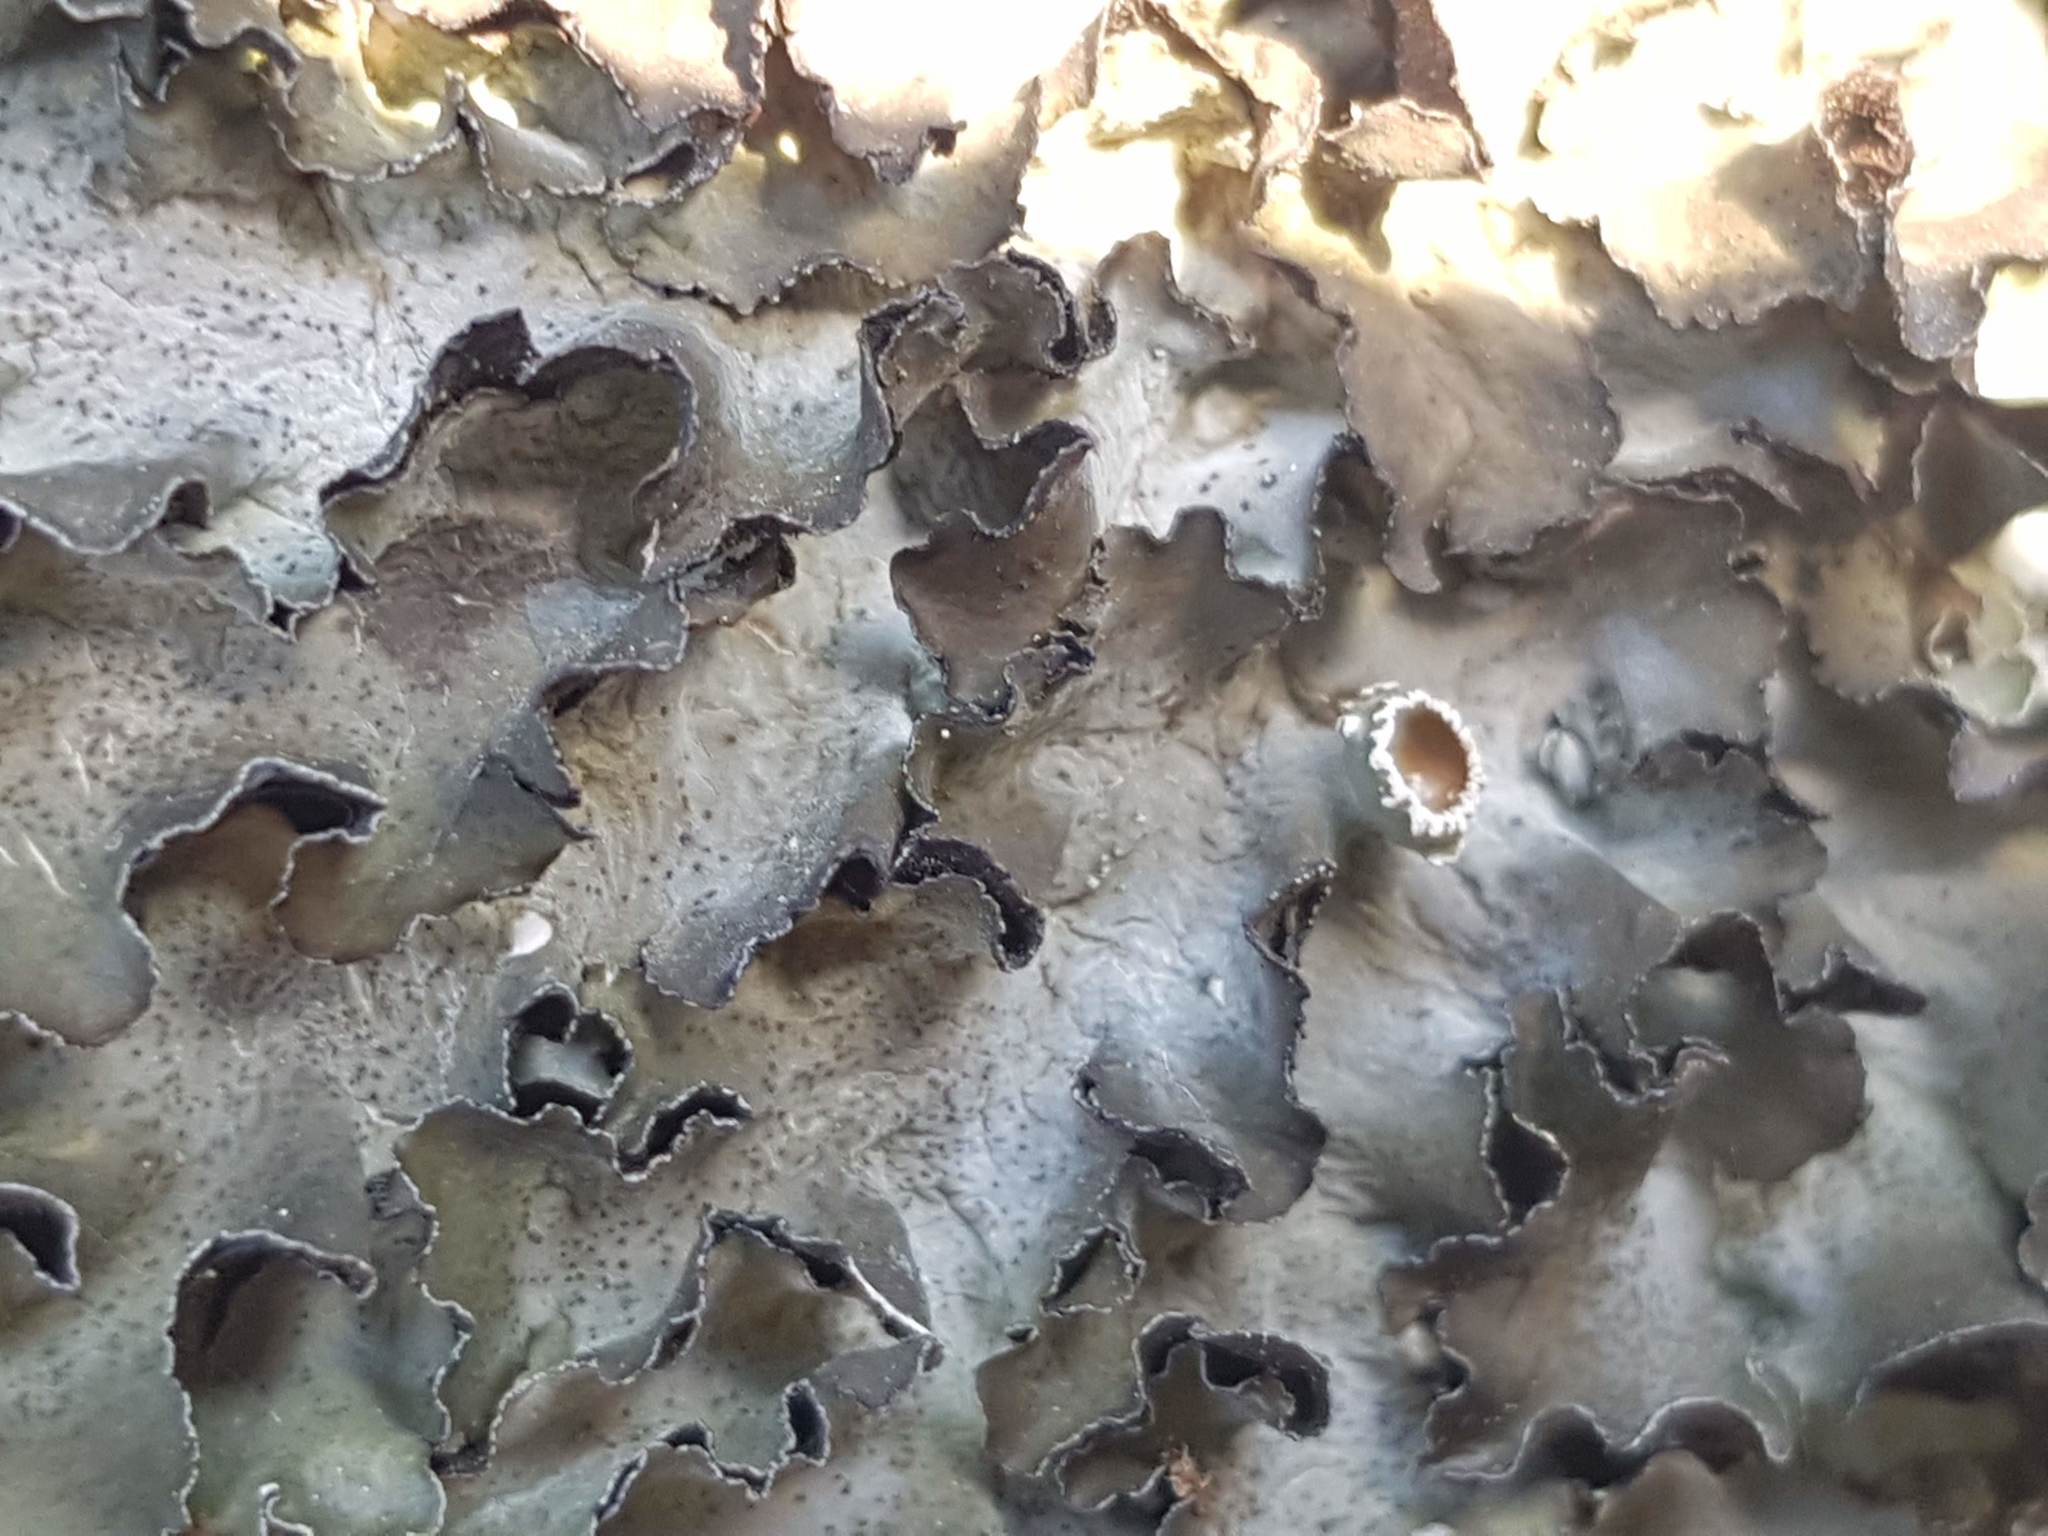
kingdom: Fungi
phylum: Ascomycota
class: Lecanoromycetes
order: Lecanorales
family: Parmeliaceae
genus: Pleurosticta
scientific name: Pleurosticta acetabulum
